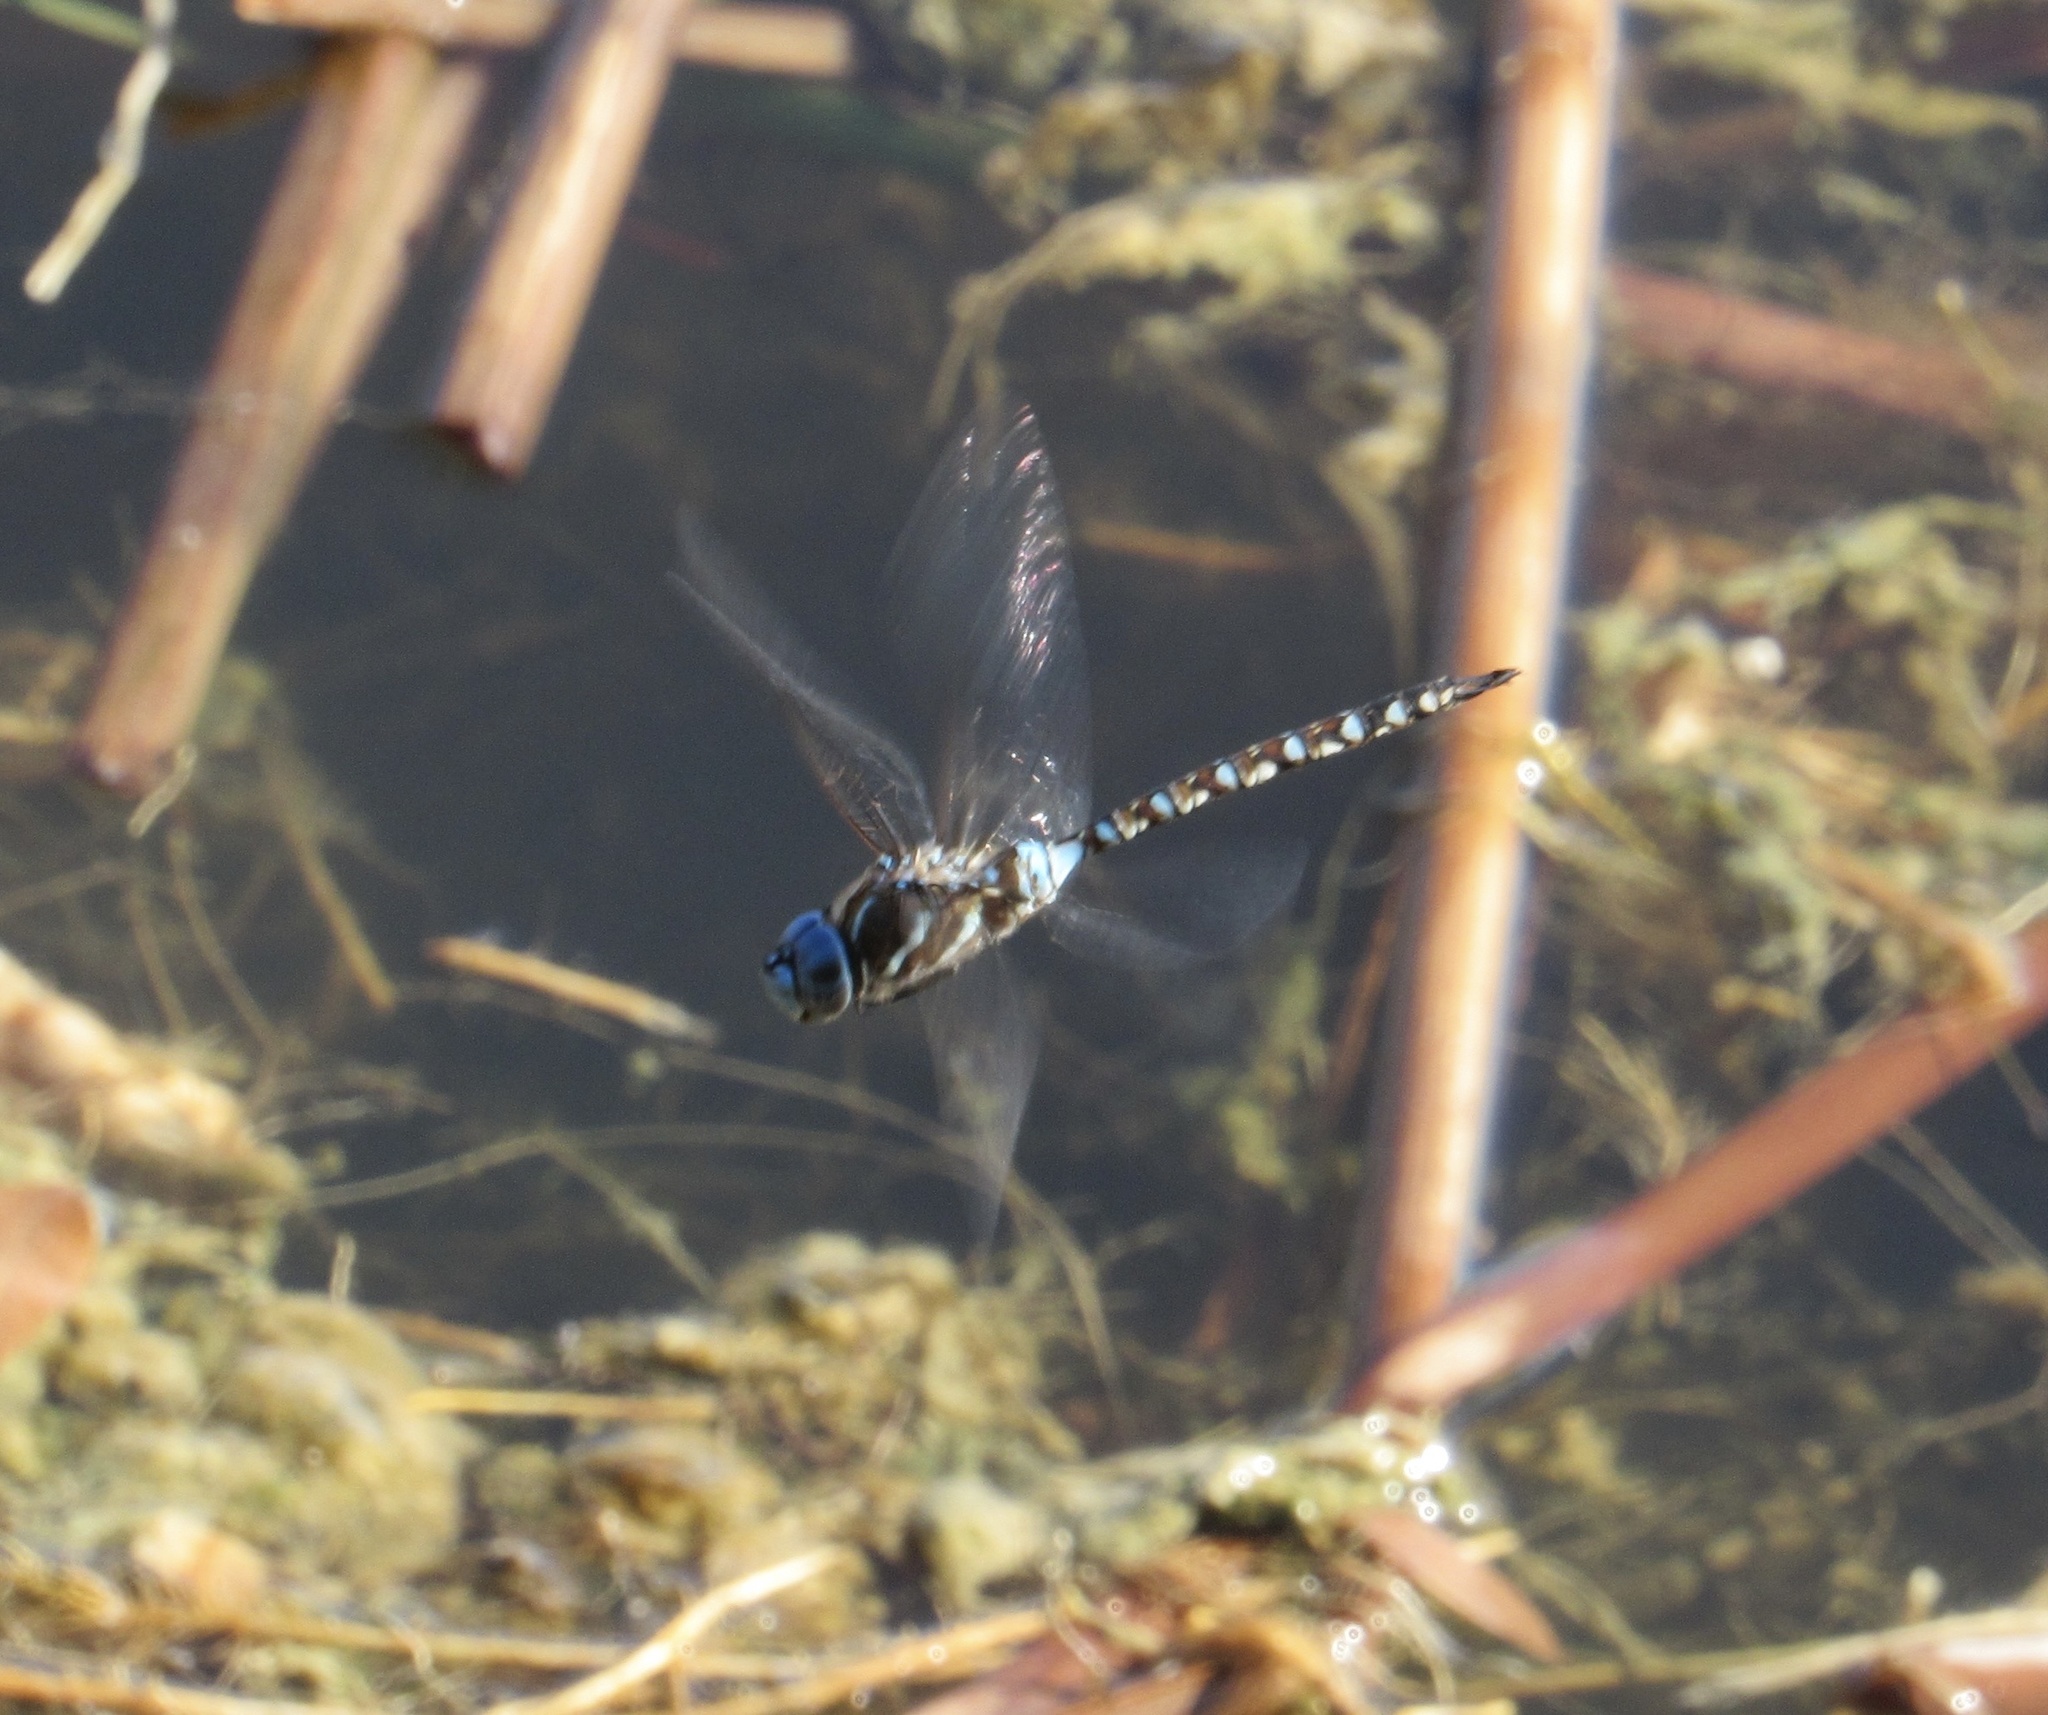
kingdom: Animalia
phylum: Arthropoda
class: Insecta
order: Odonata
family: Aeshnidae
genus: Rhionaeschna
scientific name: Rhionaeschna multicolor
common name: Blue-eyed darner
